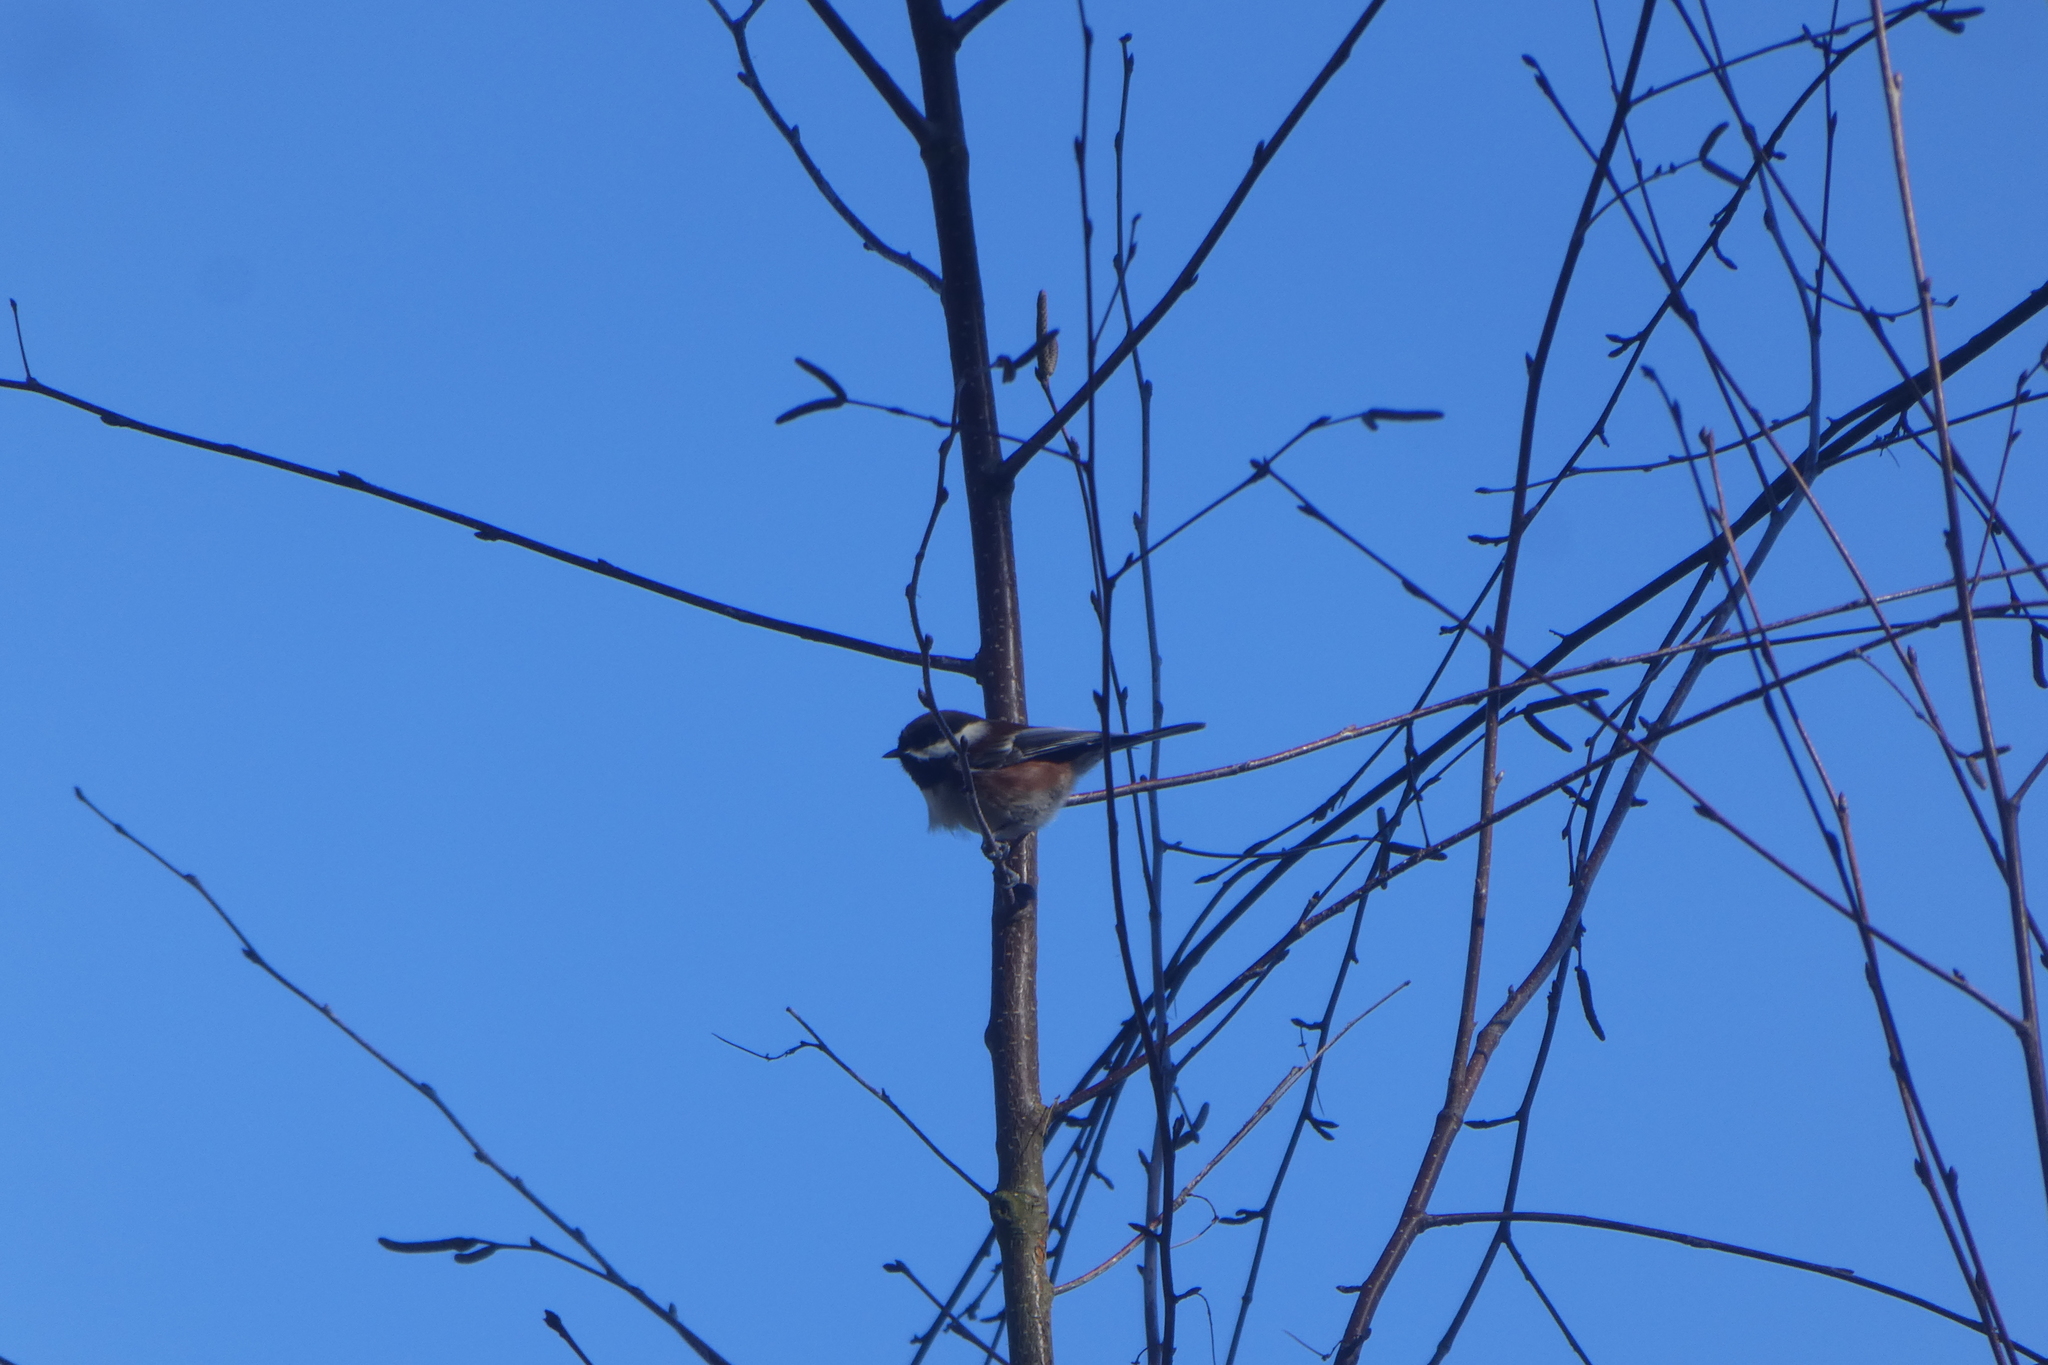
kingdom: Animalia
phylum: Chordata
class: Aves
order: Passeriformes
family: Paridae
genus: Poecile
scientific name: Poecile rufescens
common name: Chestnut-backed chickadee
